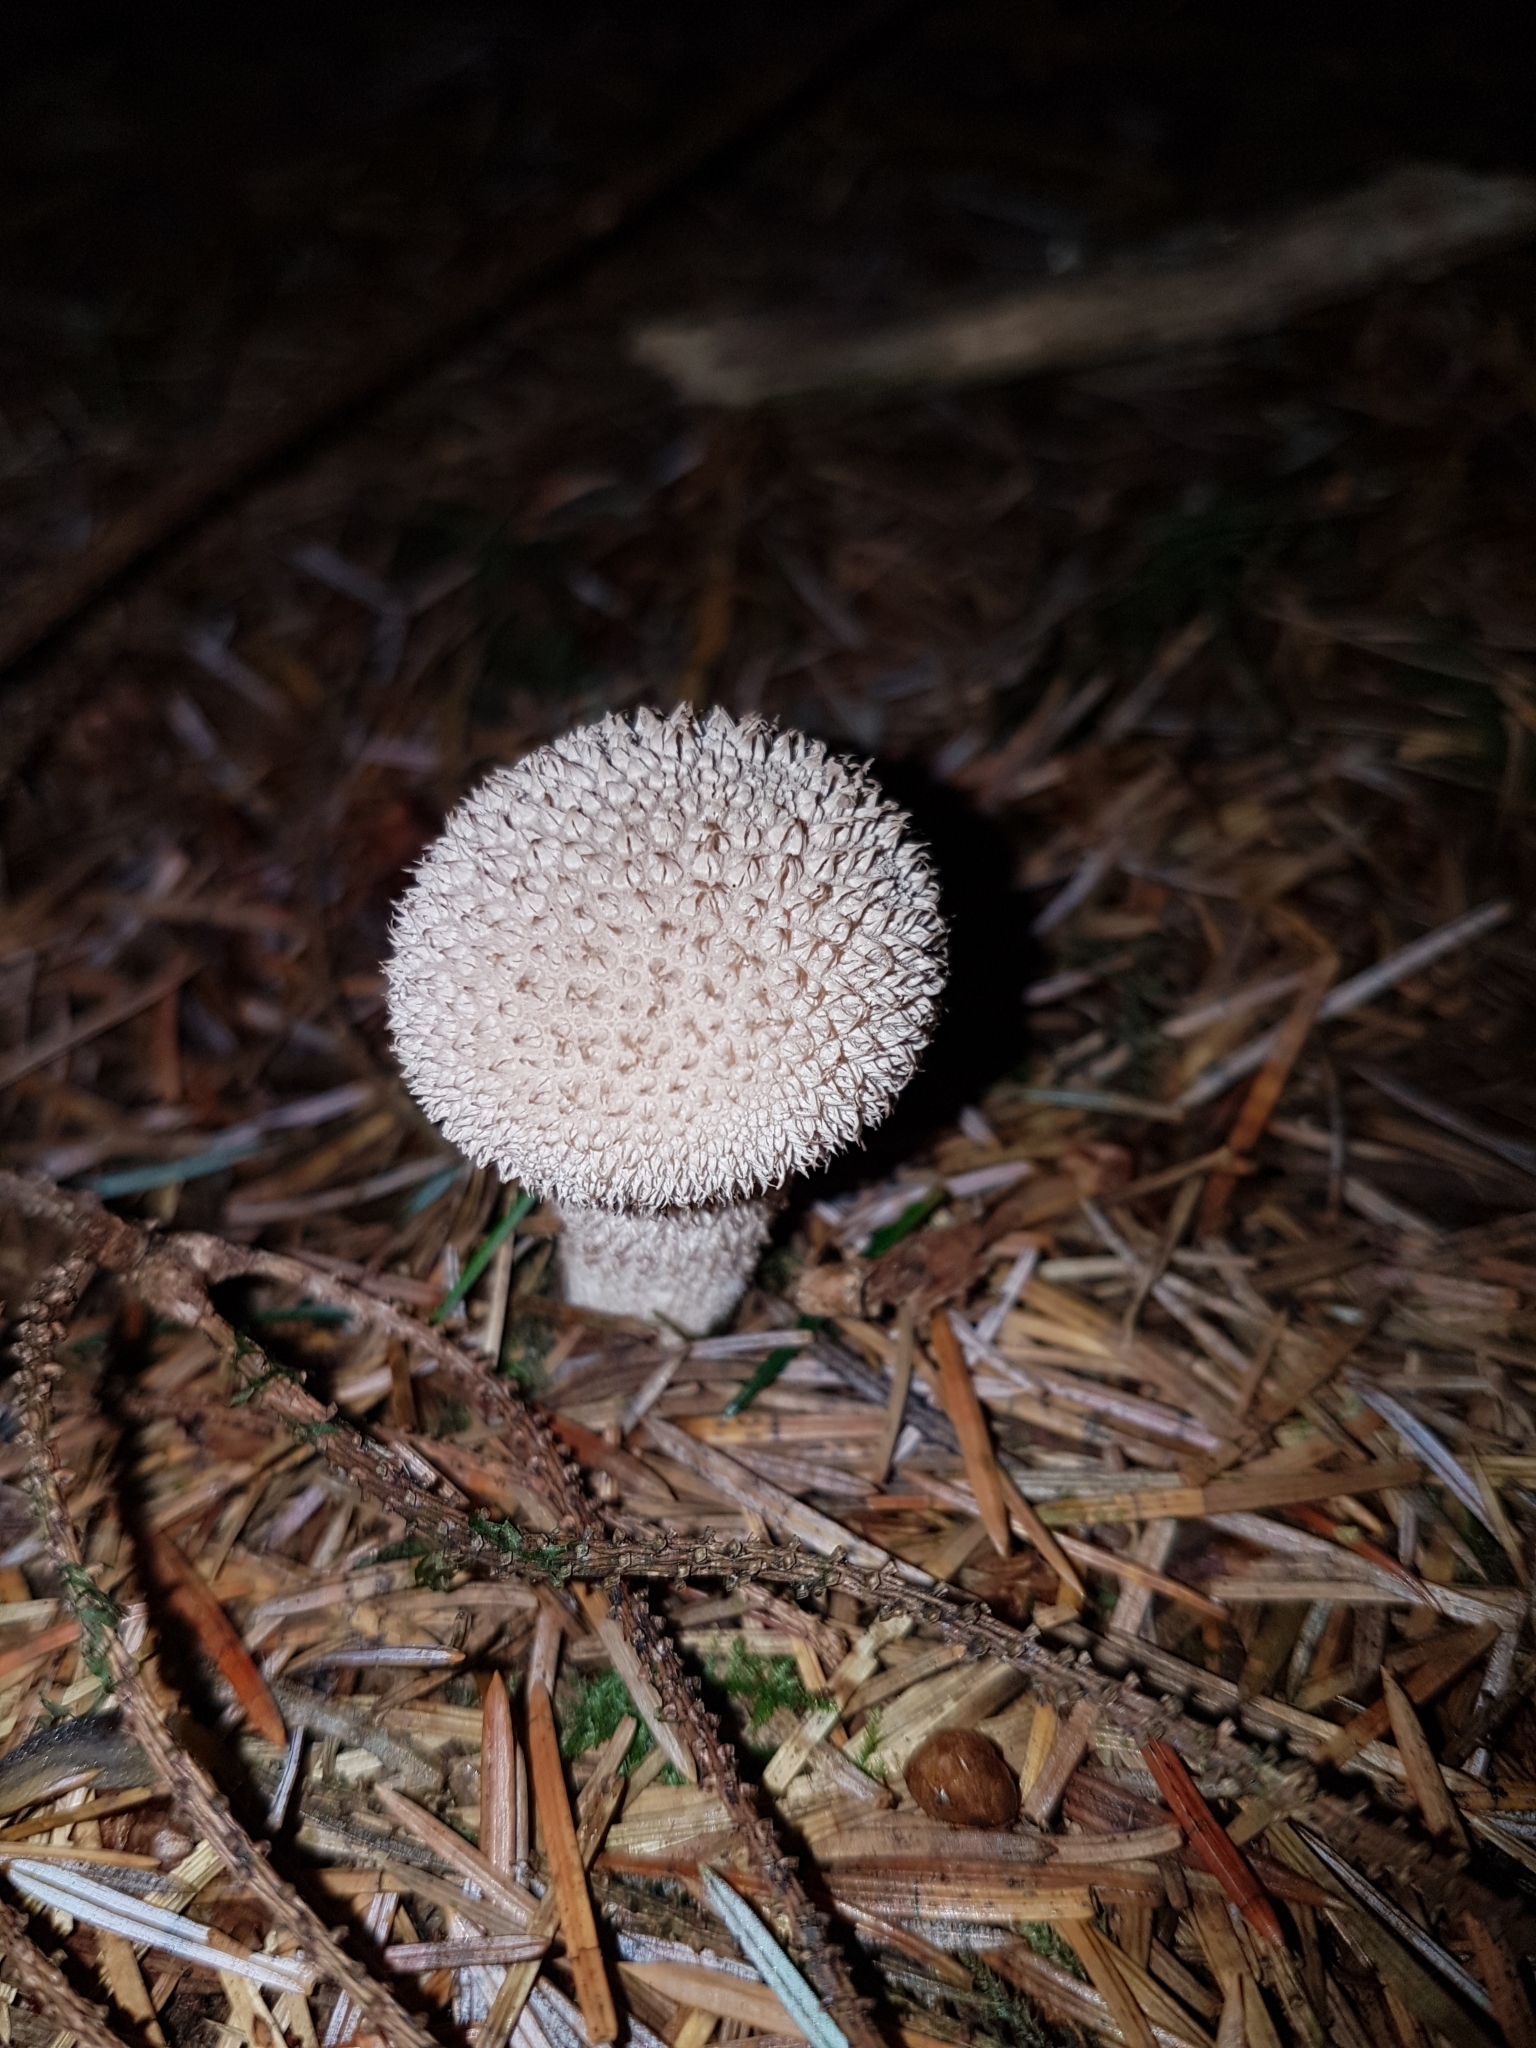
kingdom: Fungi
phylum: Basidiomycota
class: Agaricomycetes
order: Agaricales
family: Lycoperdaceae
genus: Lycoperdon
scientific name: Lycoperdon perlatum
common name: Common puffball
